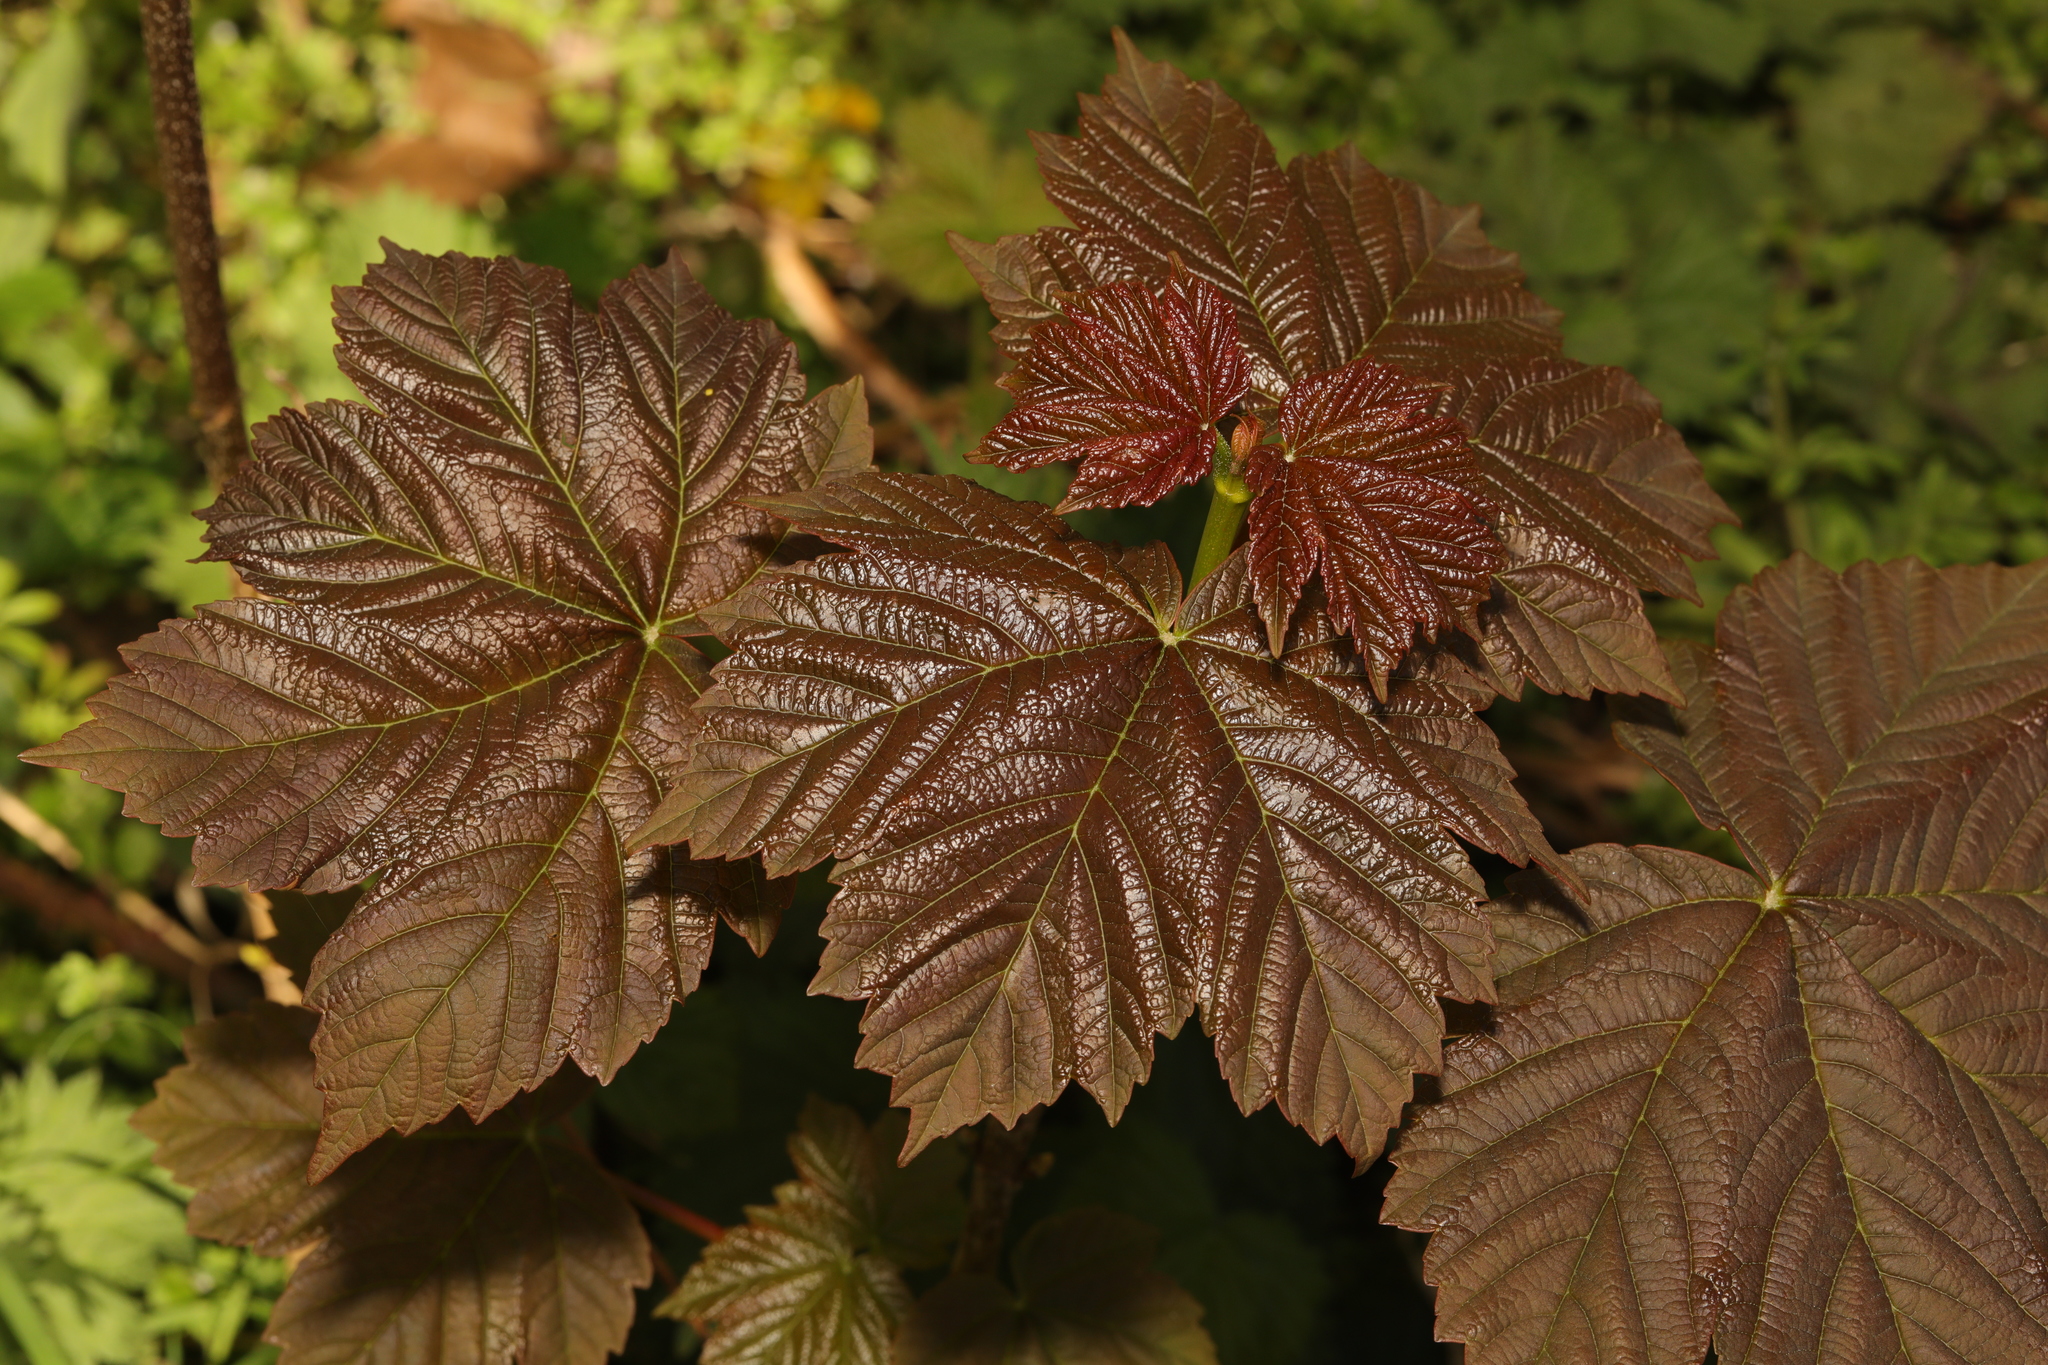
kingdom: Plantae
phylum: Tracheophyta
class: Magnoliopsida
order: Sapindales
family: Sapindaceae
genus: Acer
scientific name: Acer pseudoplatanus
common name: Sycamore
